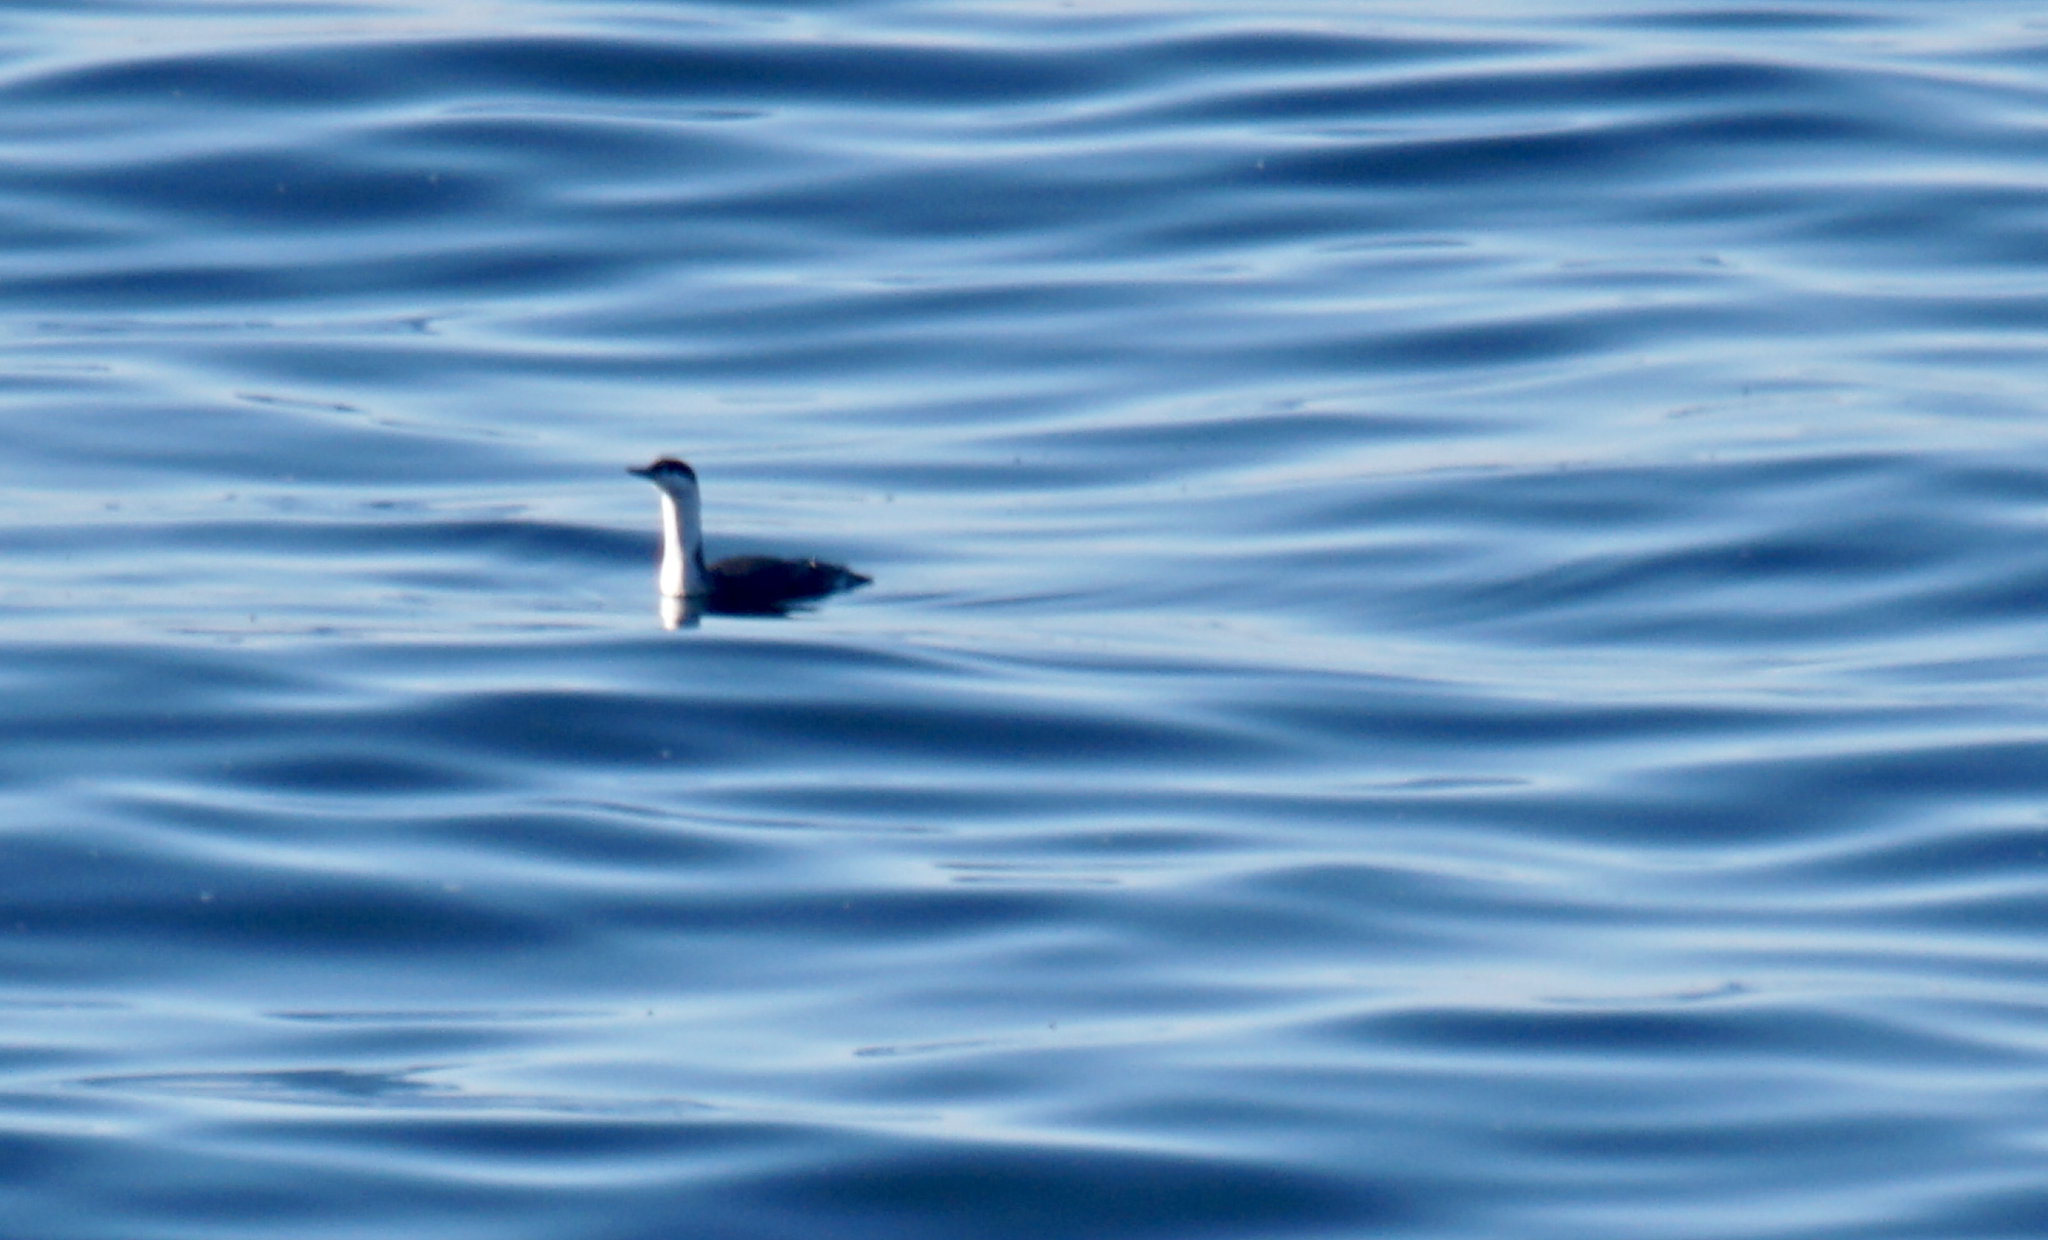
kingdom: Animalia
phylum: Chordata
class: Aves
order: Gaviiformes
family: Gaviidae
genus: Gavia
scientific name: Gavia stellata
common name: Red-throated loon
